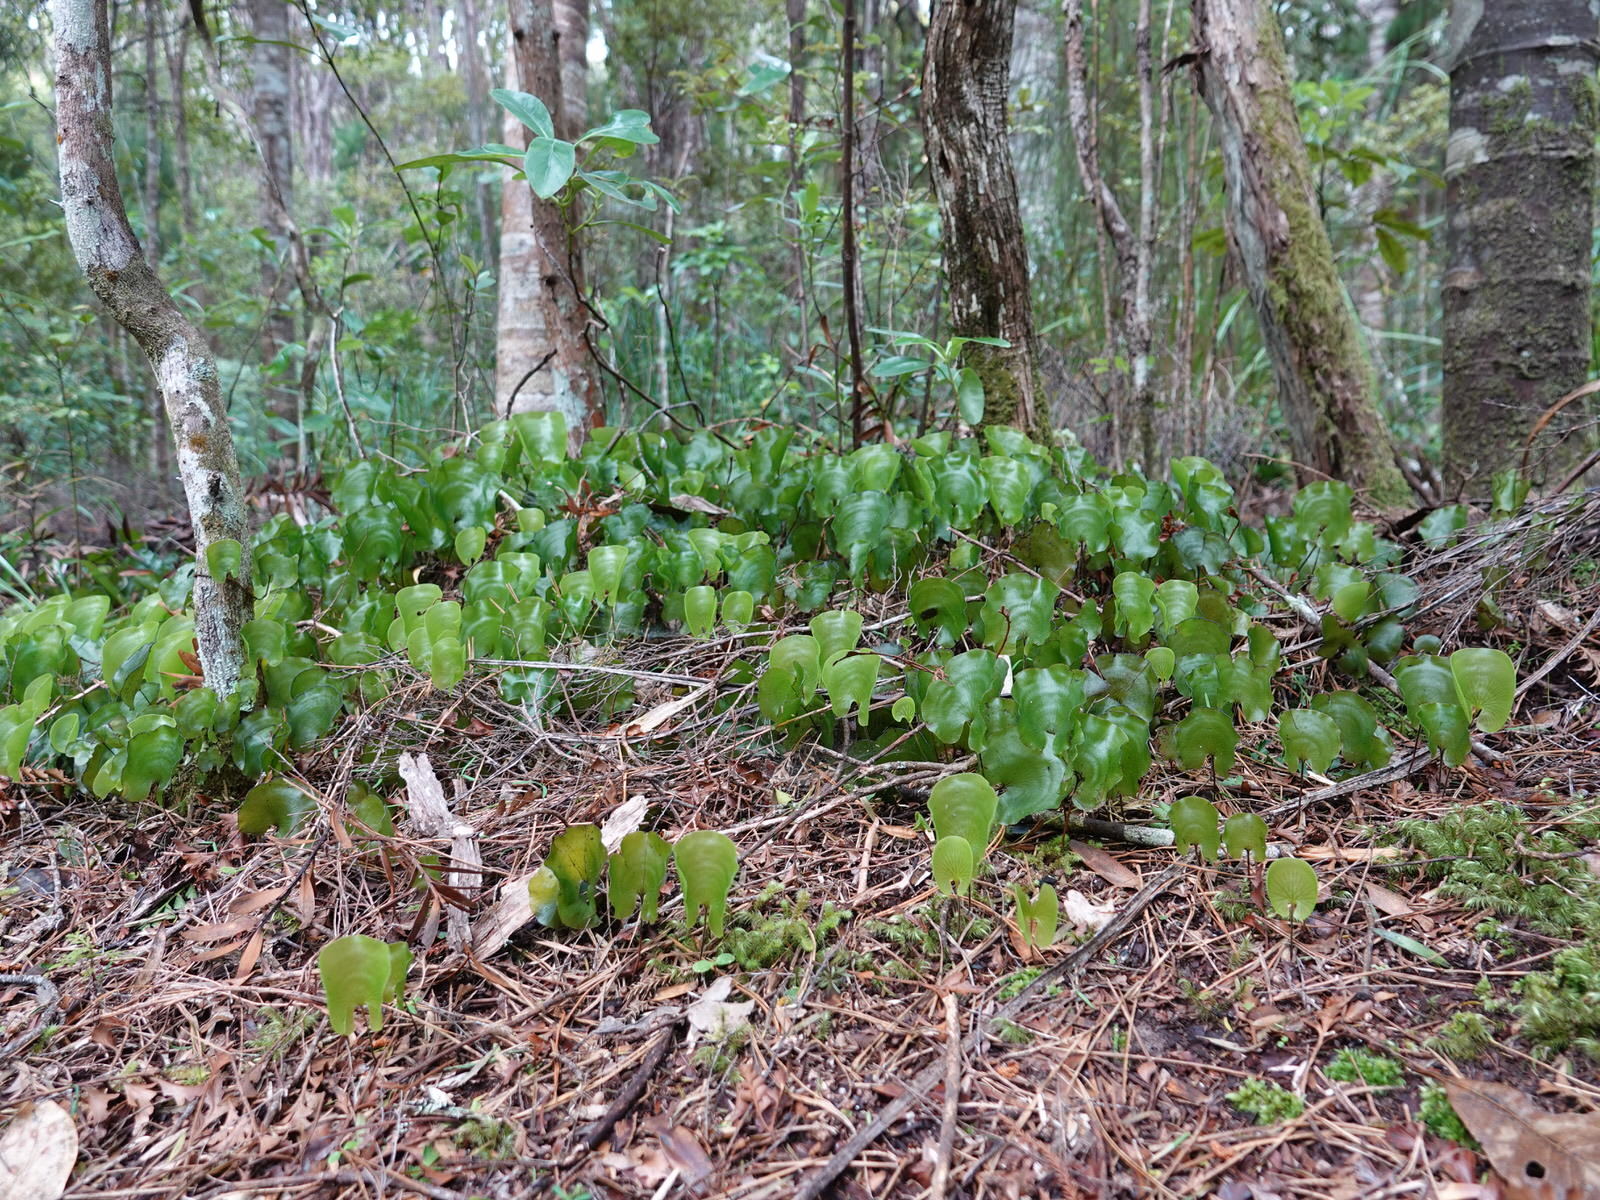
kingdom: Plantae
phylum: Tracheophyta
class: Polypodiopsida
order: Hymenophyllales
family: Hymenophyllaceae
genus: Hymenophyllum
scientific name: Hymenophyllum nephrophyllum
